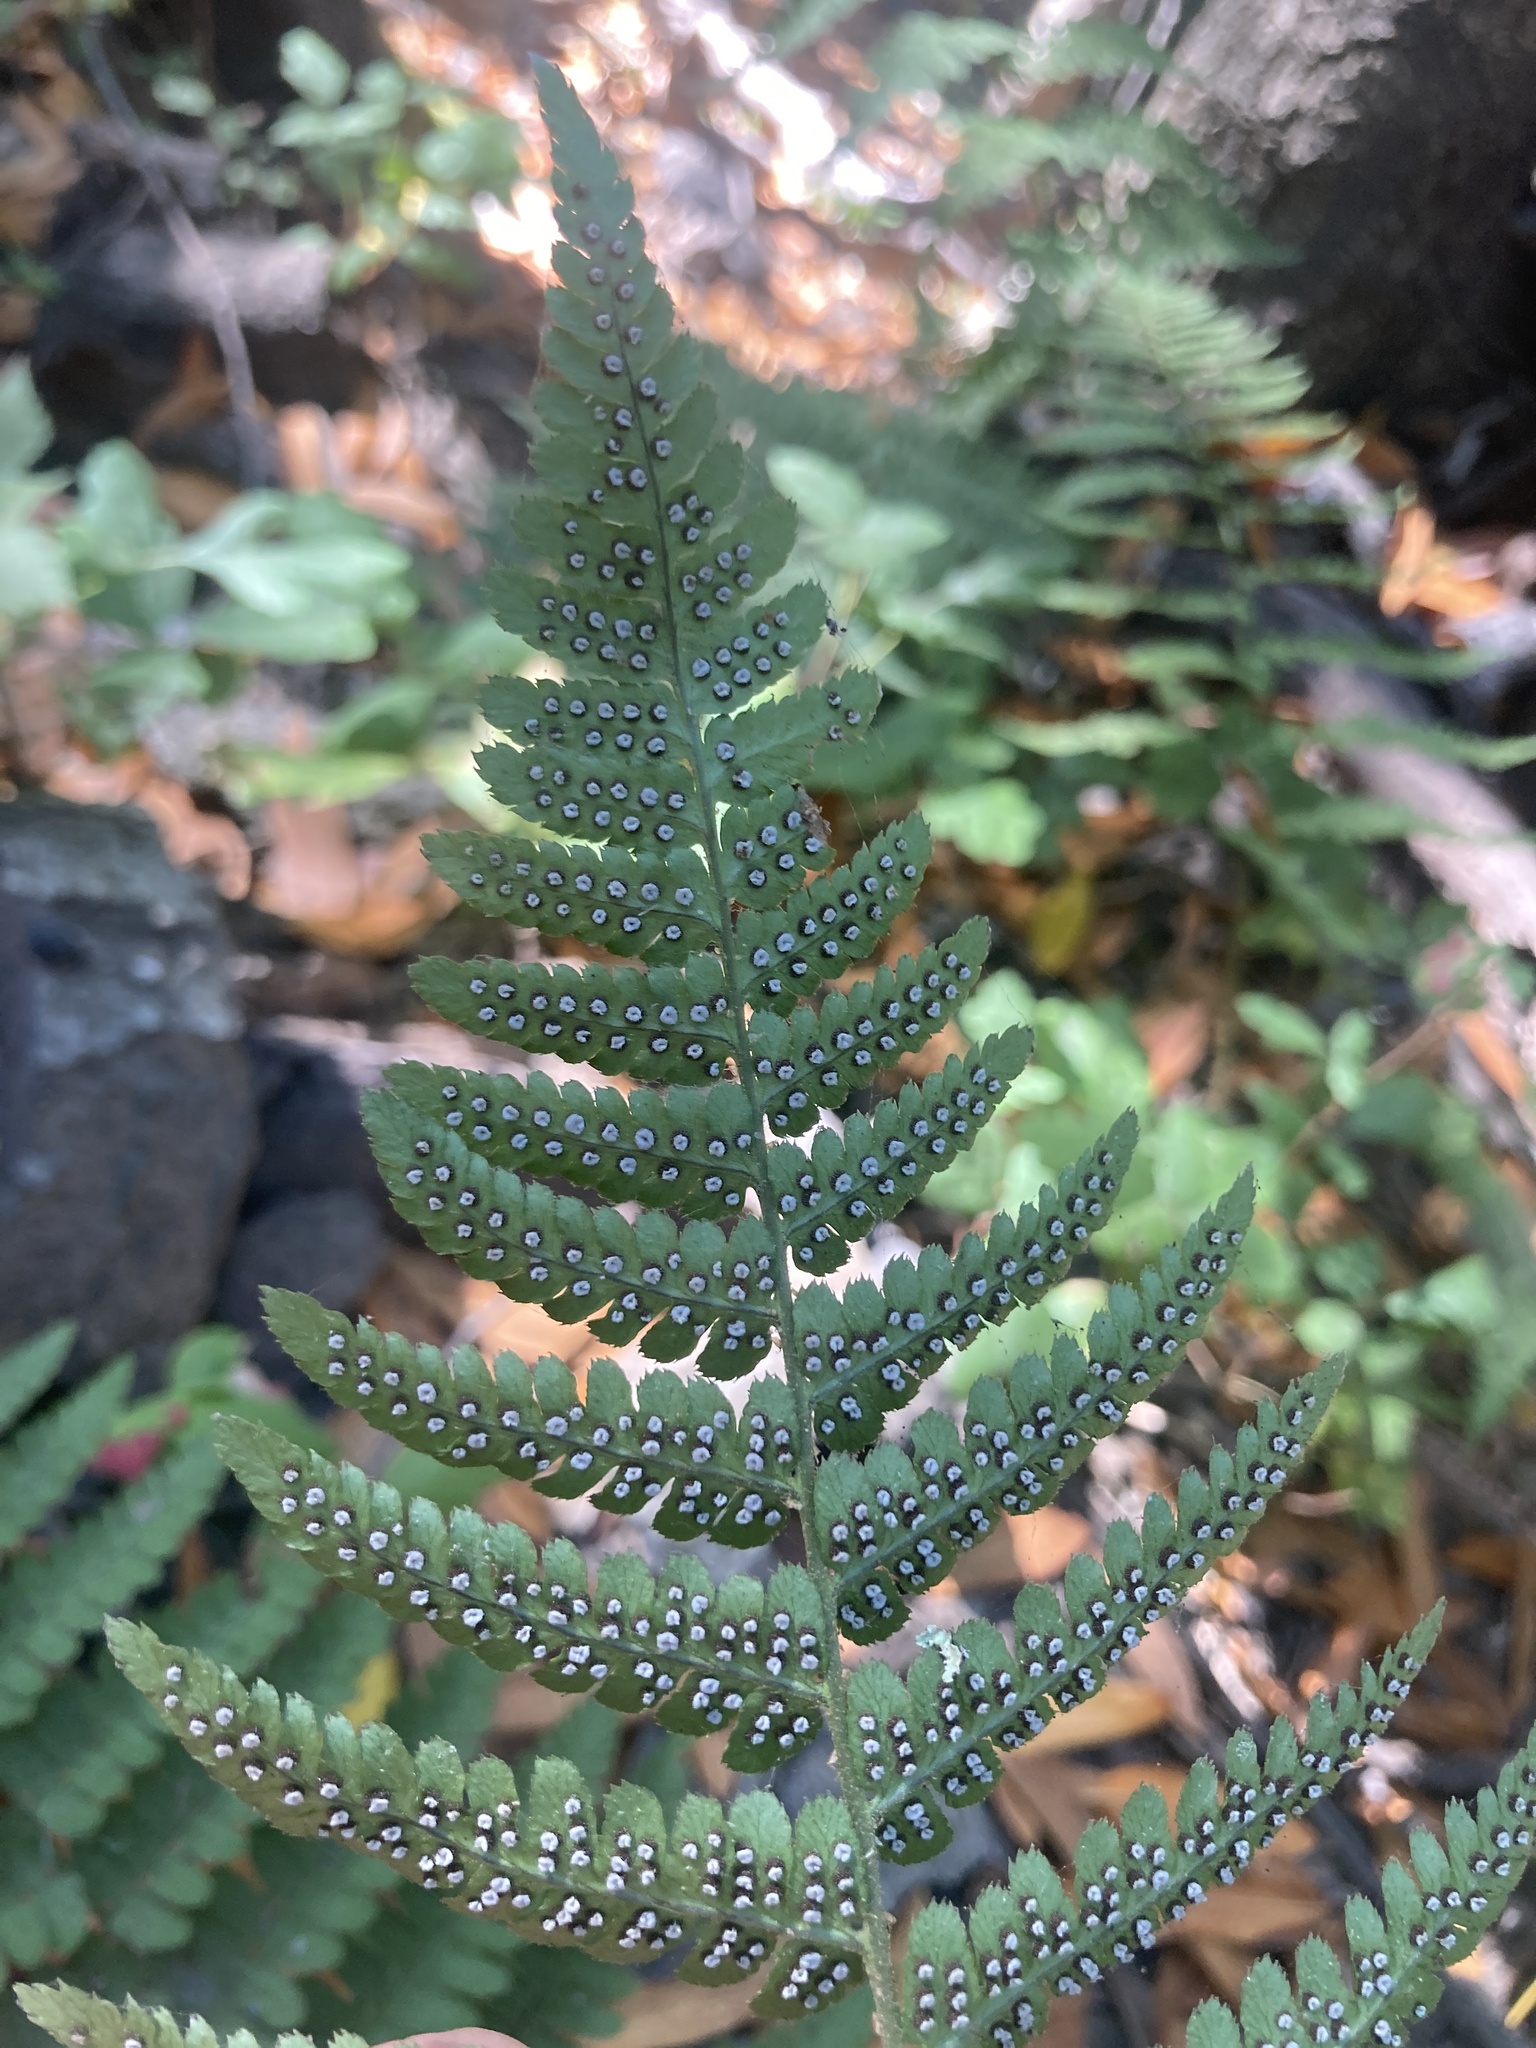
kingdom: Plantae
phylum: Tracheophyta
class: Polypodiopsida
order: Polypodiales
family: Dryopteridaceae
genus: Dryopteris
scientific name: Dryopteris arguta
